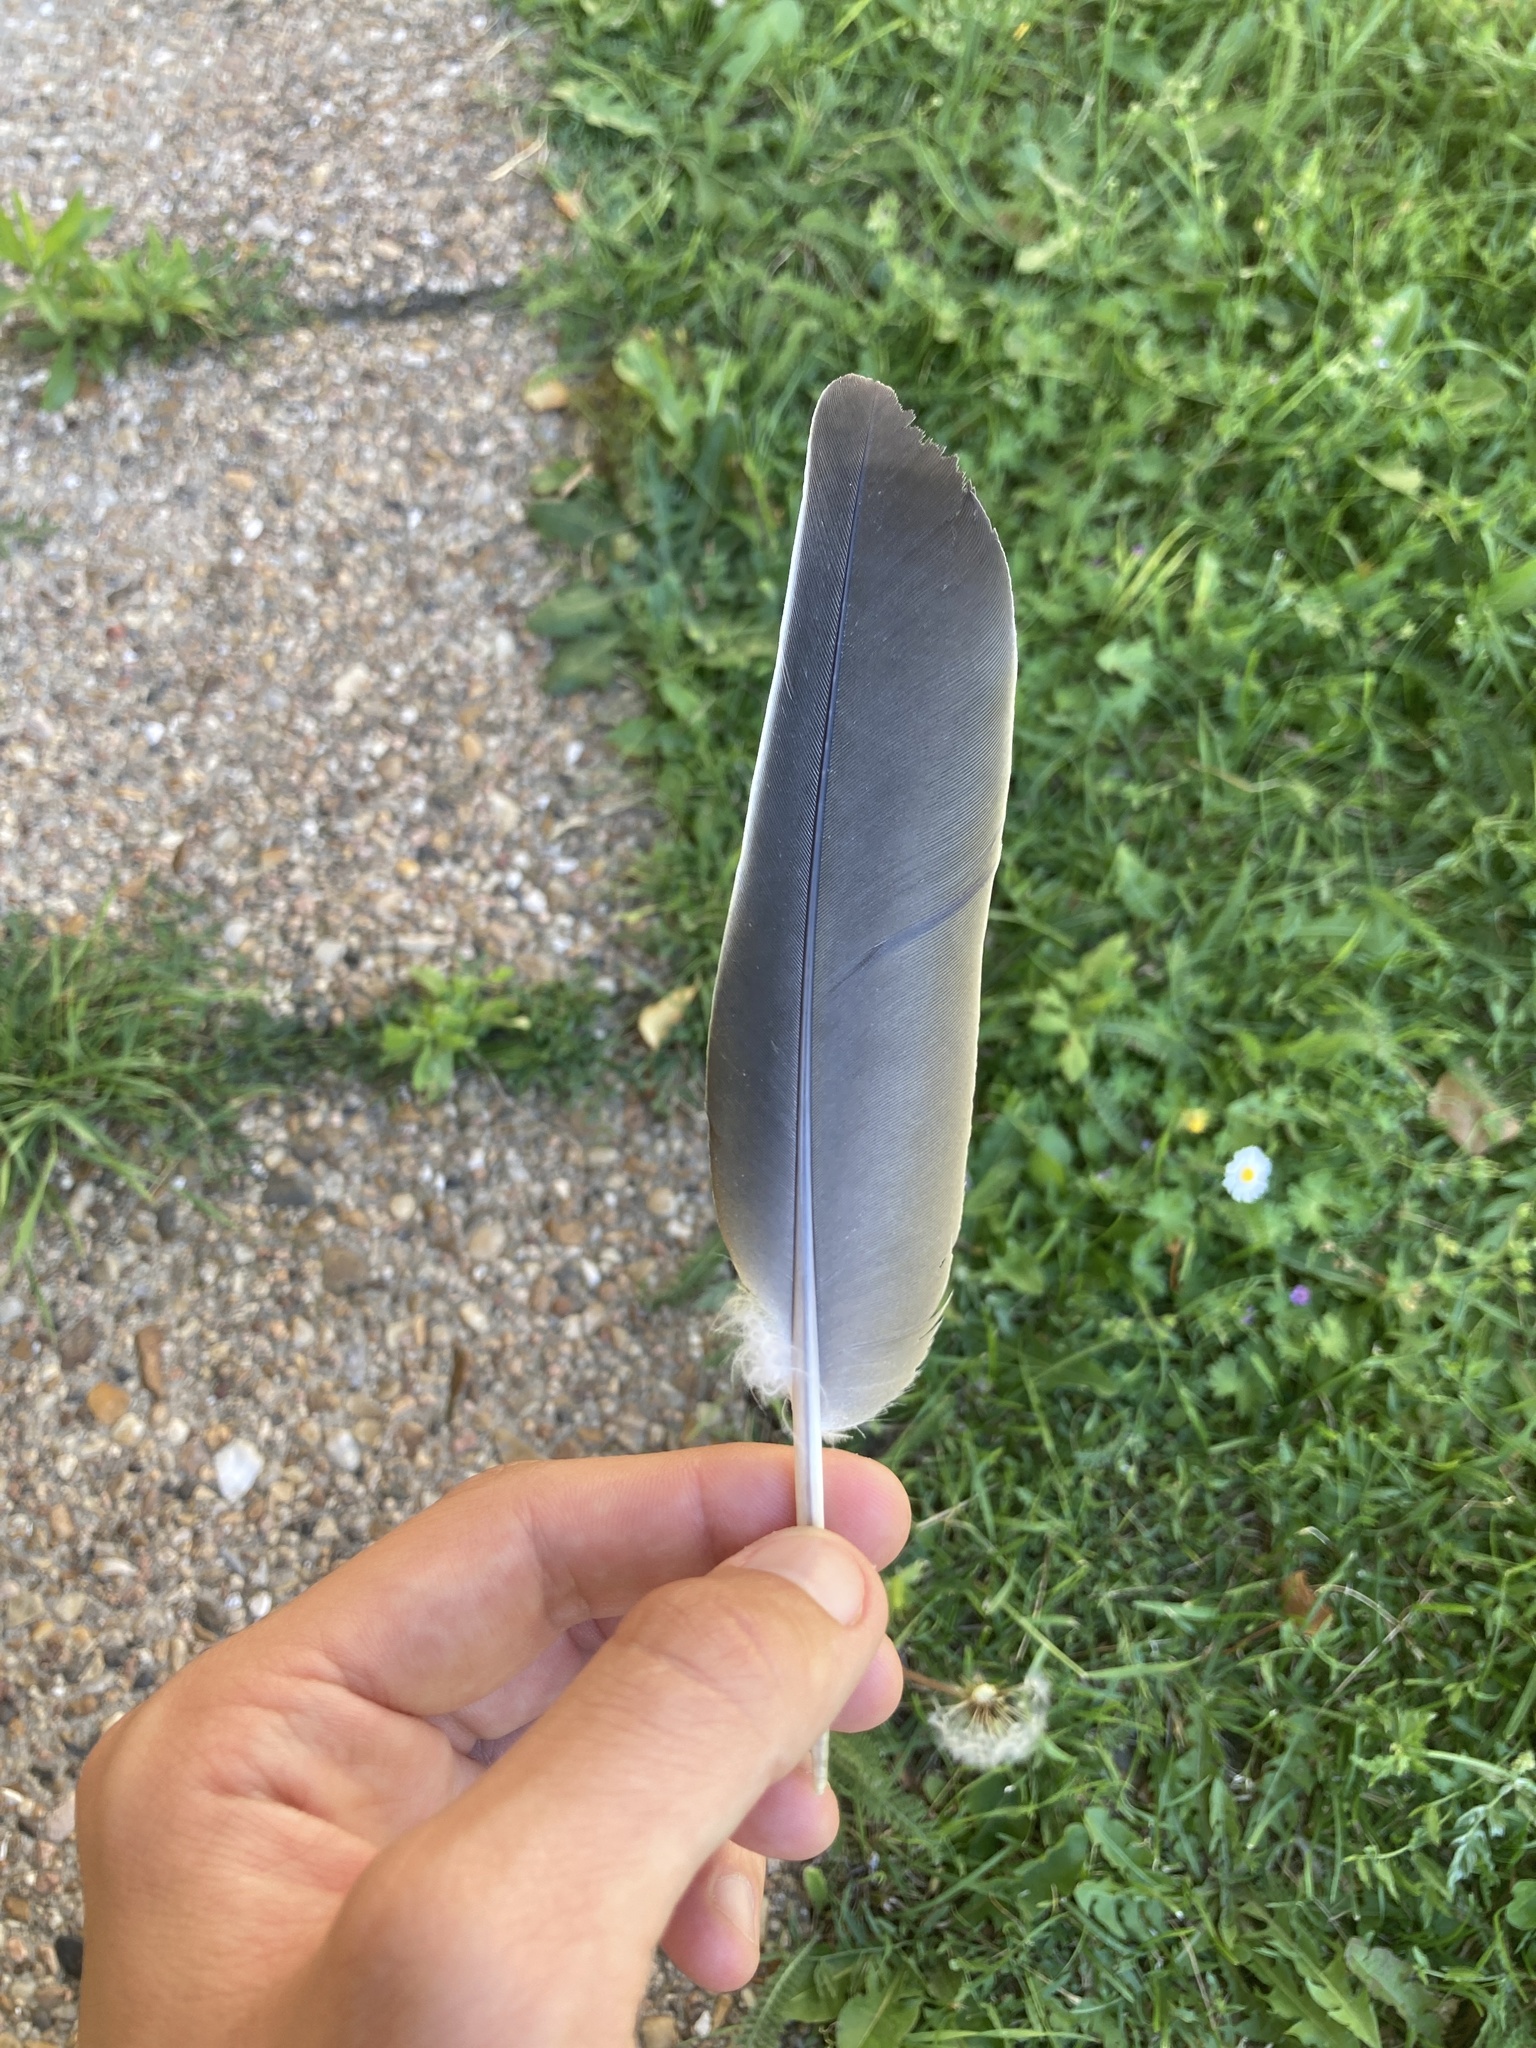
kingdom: Animalia
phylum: Chordata
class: Aves
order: Columbiformes
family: Columbidae
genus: Columba
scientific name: Columba palumbus
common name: Common wood pigeon
